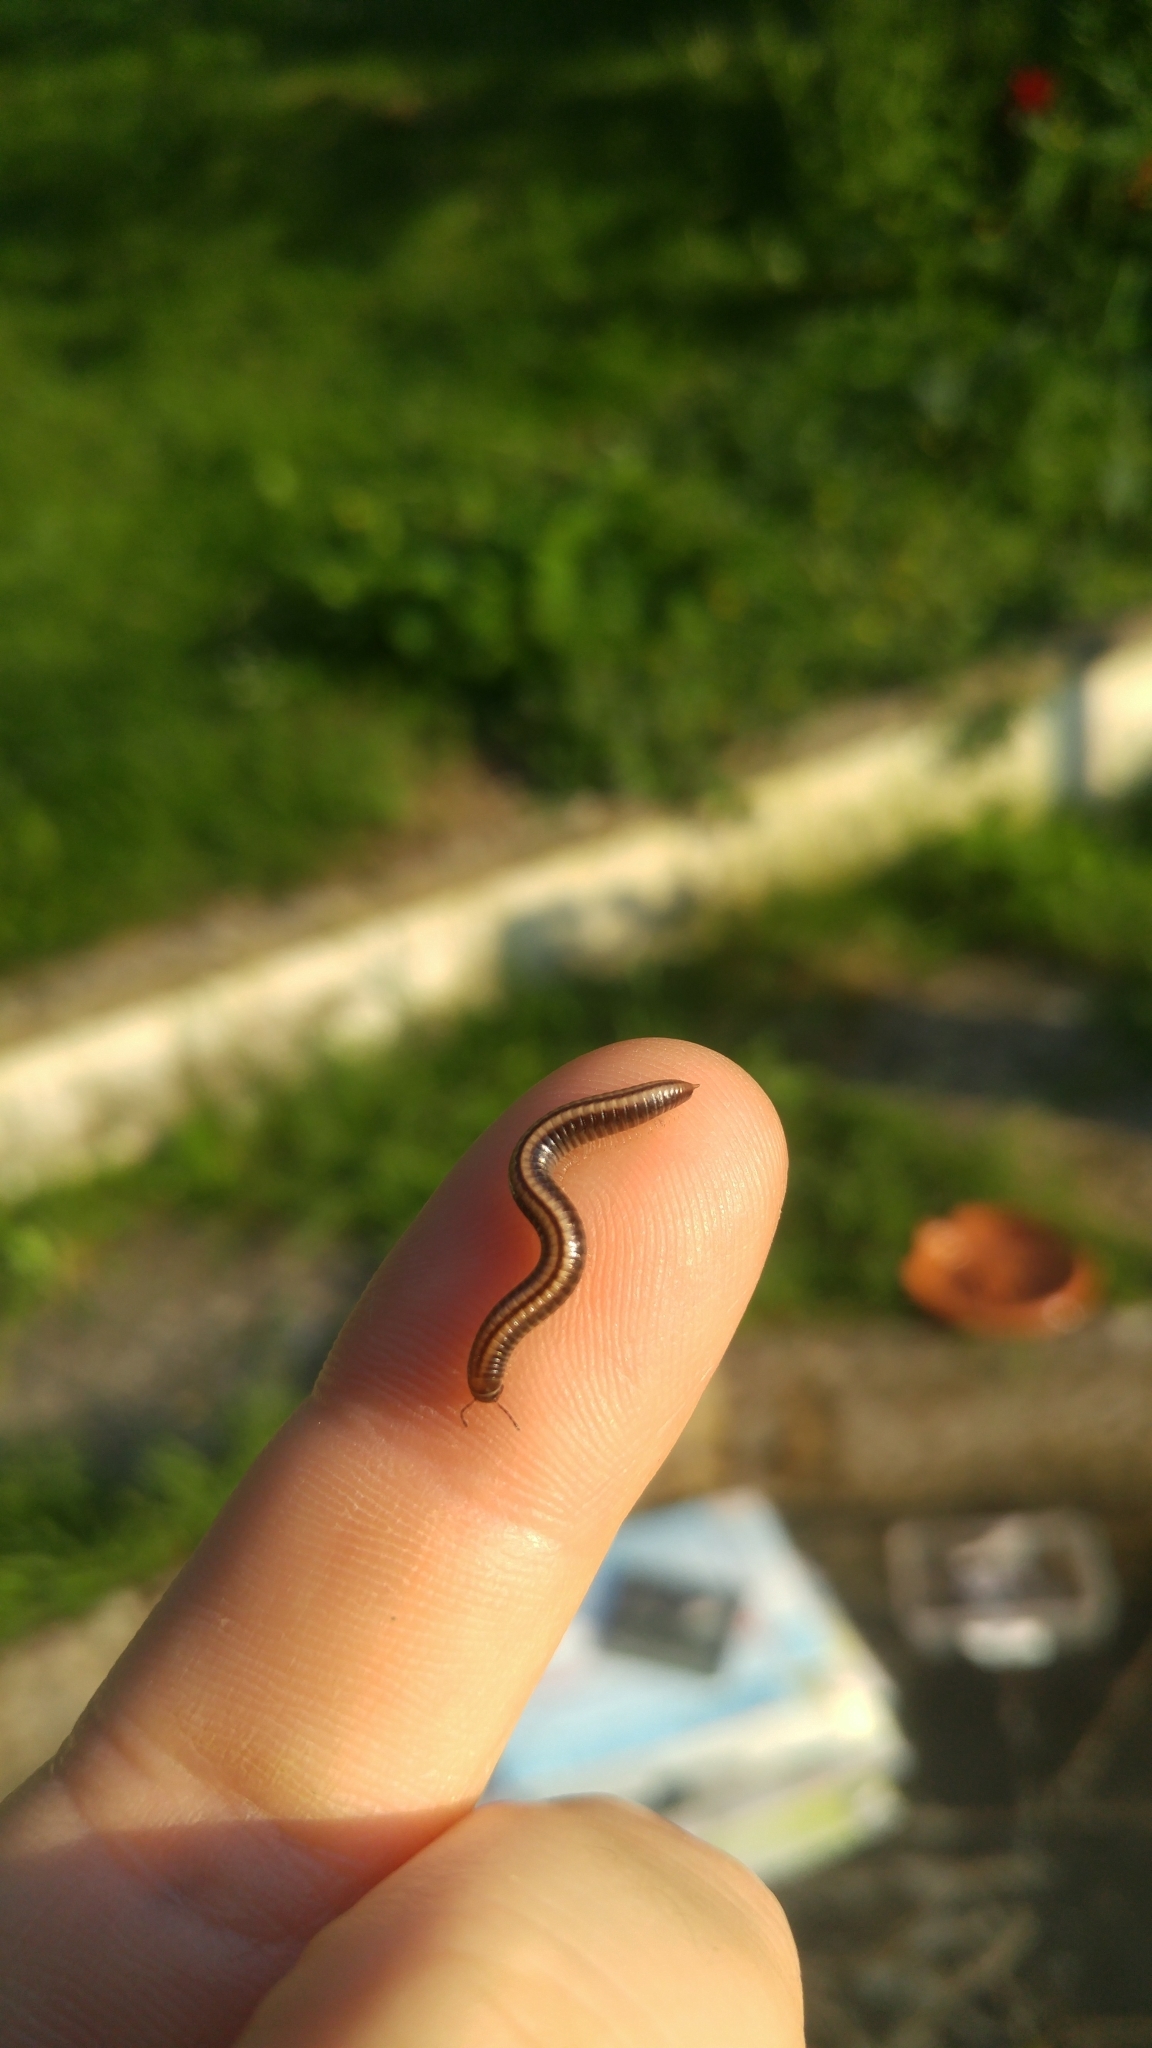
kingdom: Animalia
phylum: Arthropoda
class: Diplopoda
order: Julida
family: Julidae
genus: Ommatoiulus
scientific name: Ommatoiulus sabulosus
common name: Striped millipede
